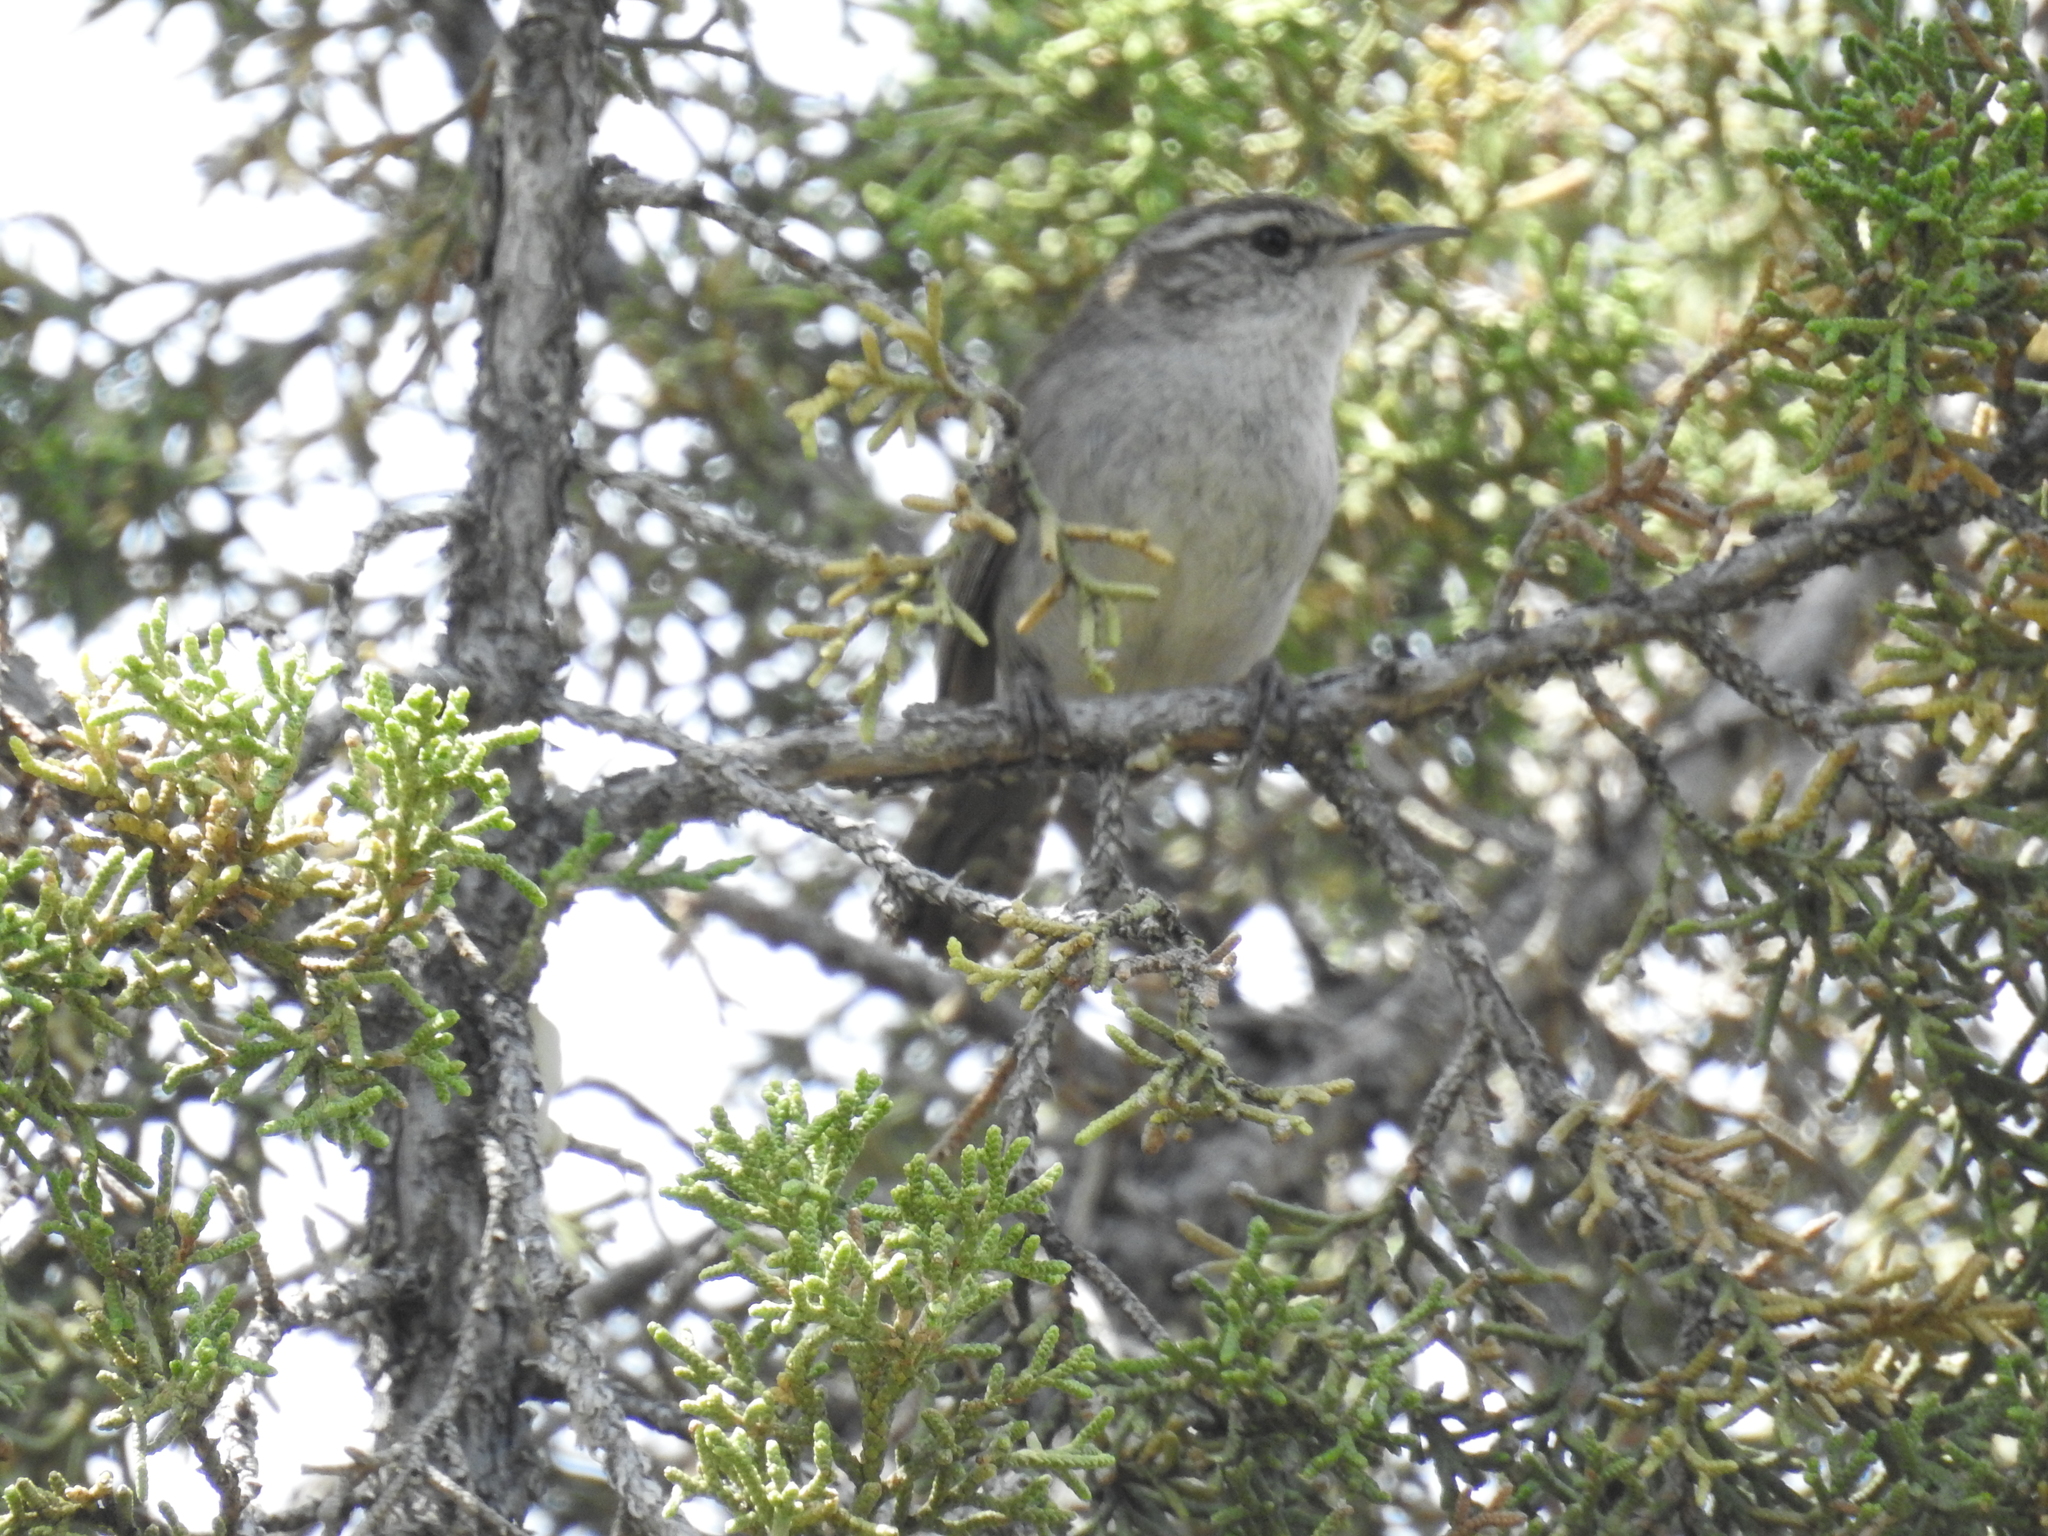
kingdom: Animalia
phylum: Chordata
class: Aves
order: Passeriformes
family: Troglodytidae
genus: Thryomanes
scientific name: Thryomanes bewickii
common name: Bewick's wren
